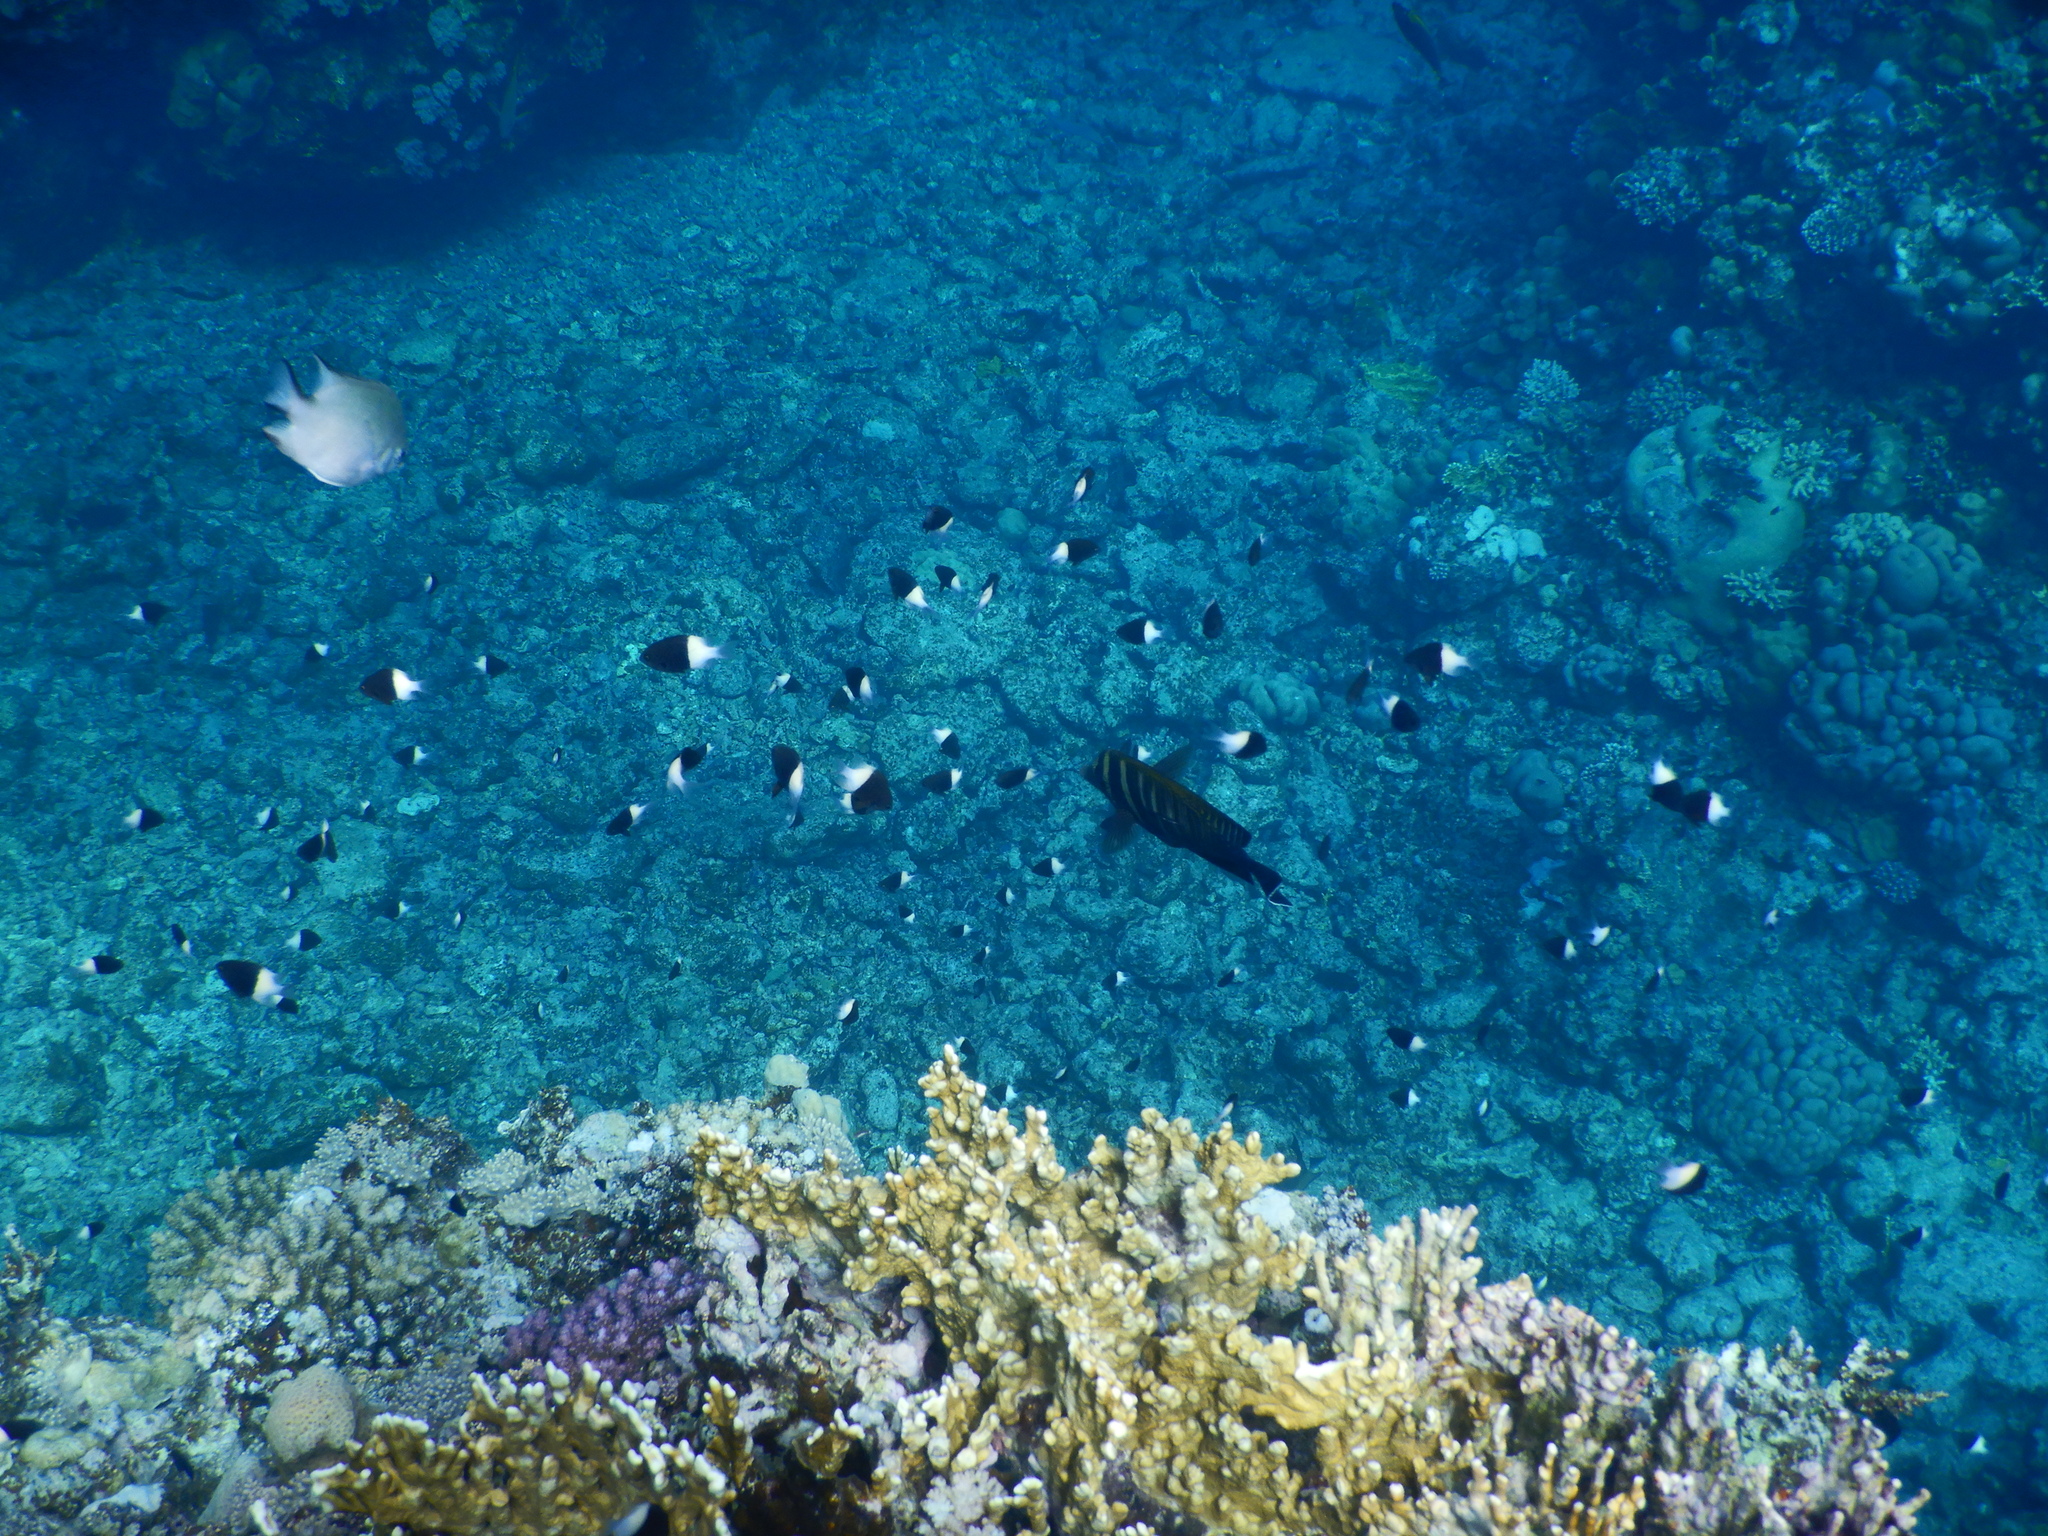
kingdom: Animalia
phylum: Chordata
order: Perciformes
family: Pomacentridae
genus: Chromis
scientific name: Chromis dimidiata
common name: Half-and-half chromis
